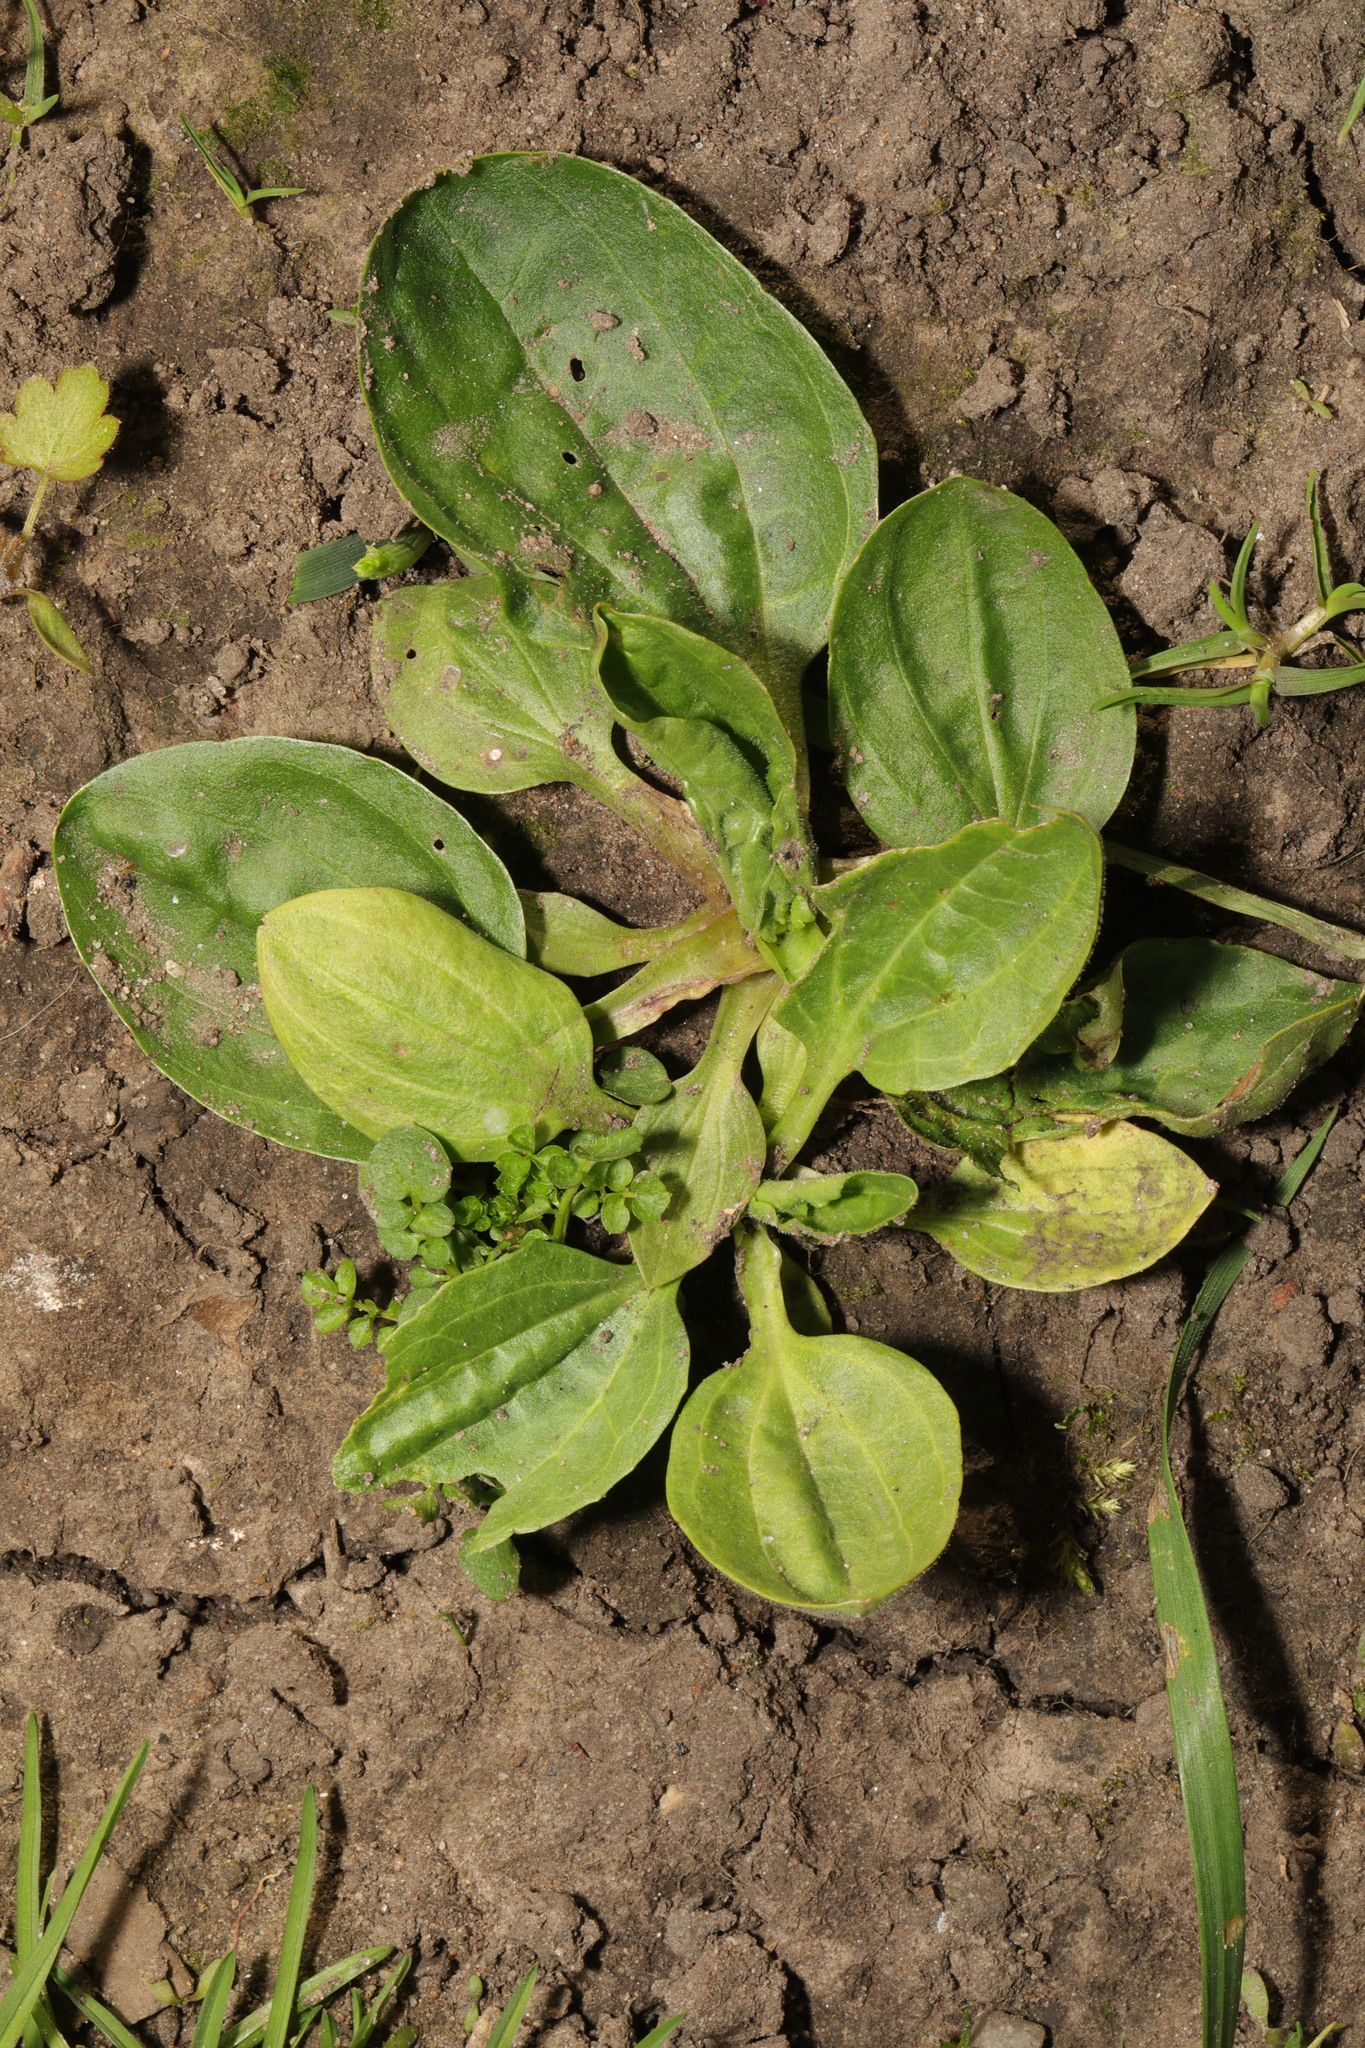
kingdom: Plantae
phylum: Tracheophyta
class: Magnoliopsida
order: Lamiales
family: Plantaginaceae
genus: Plantago
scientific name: Plantago major
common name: Common plantain
